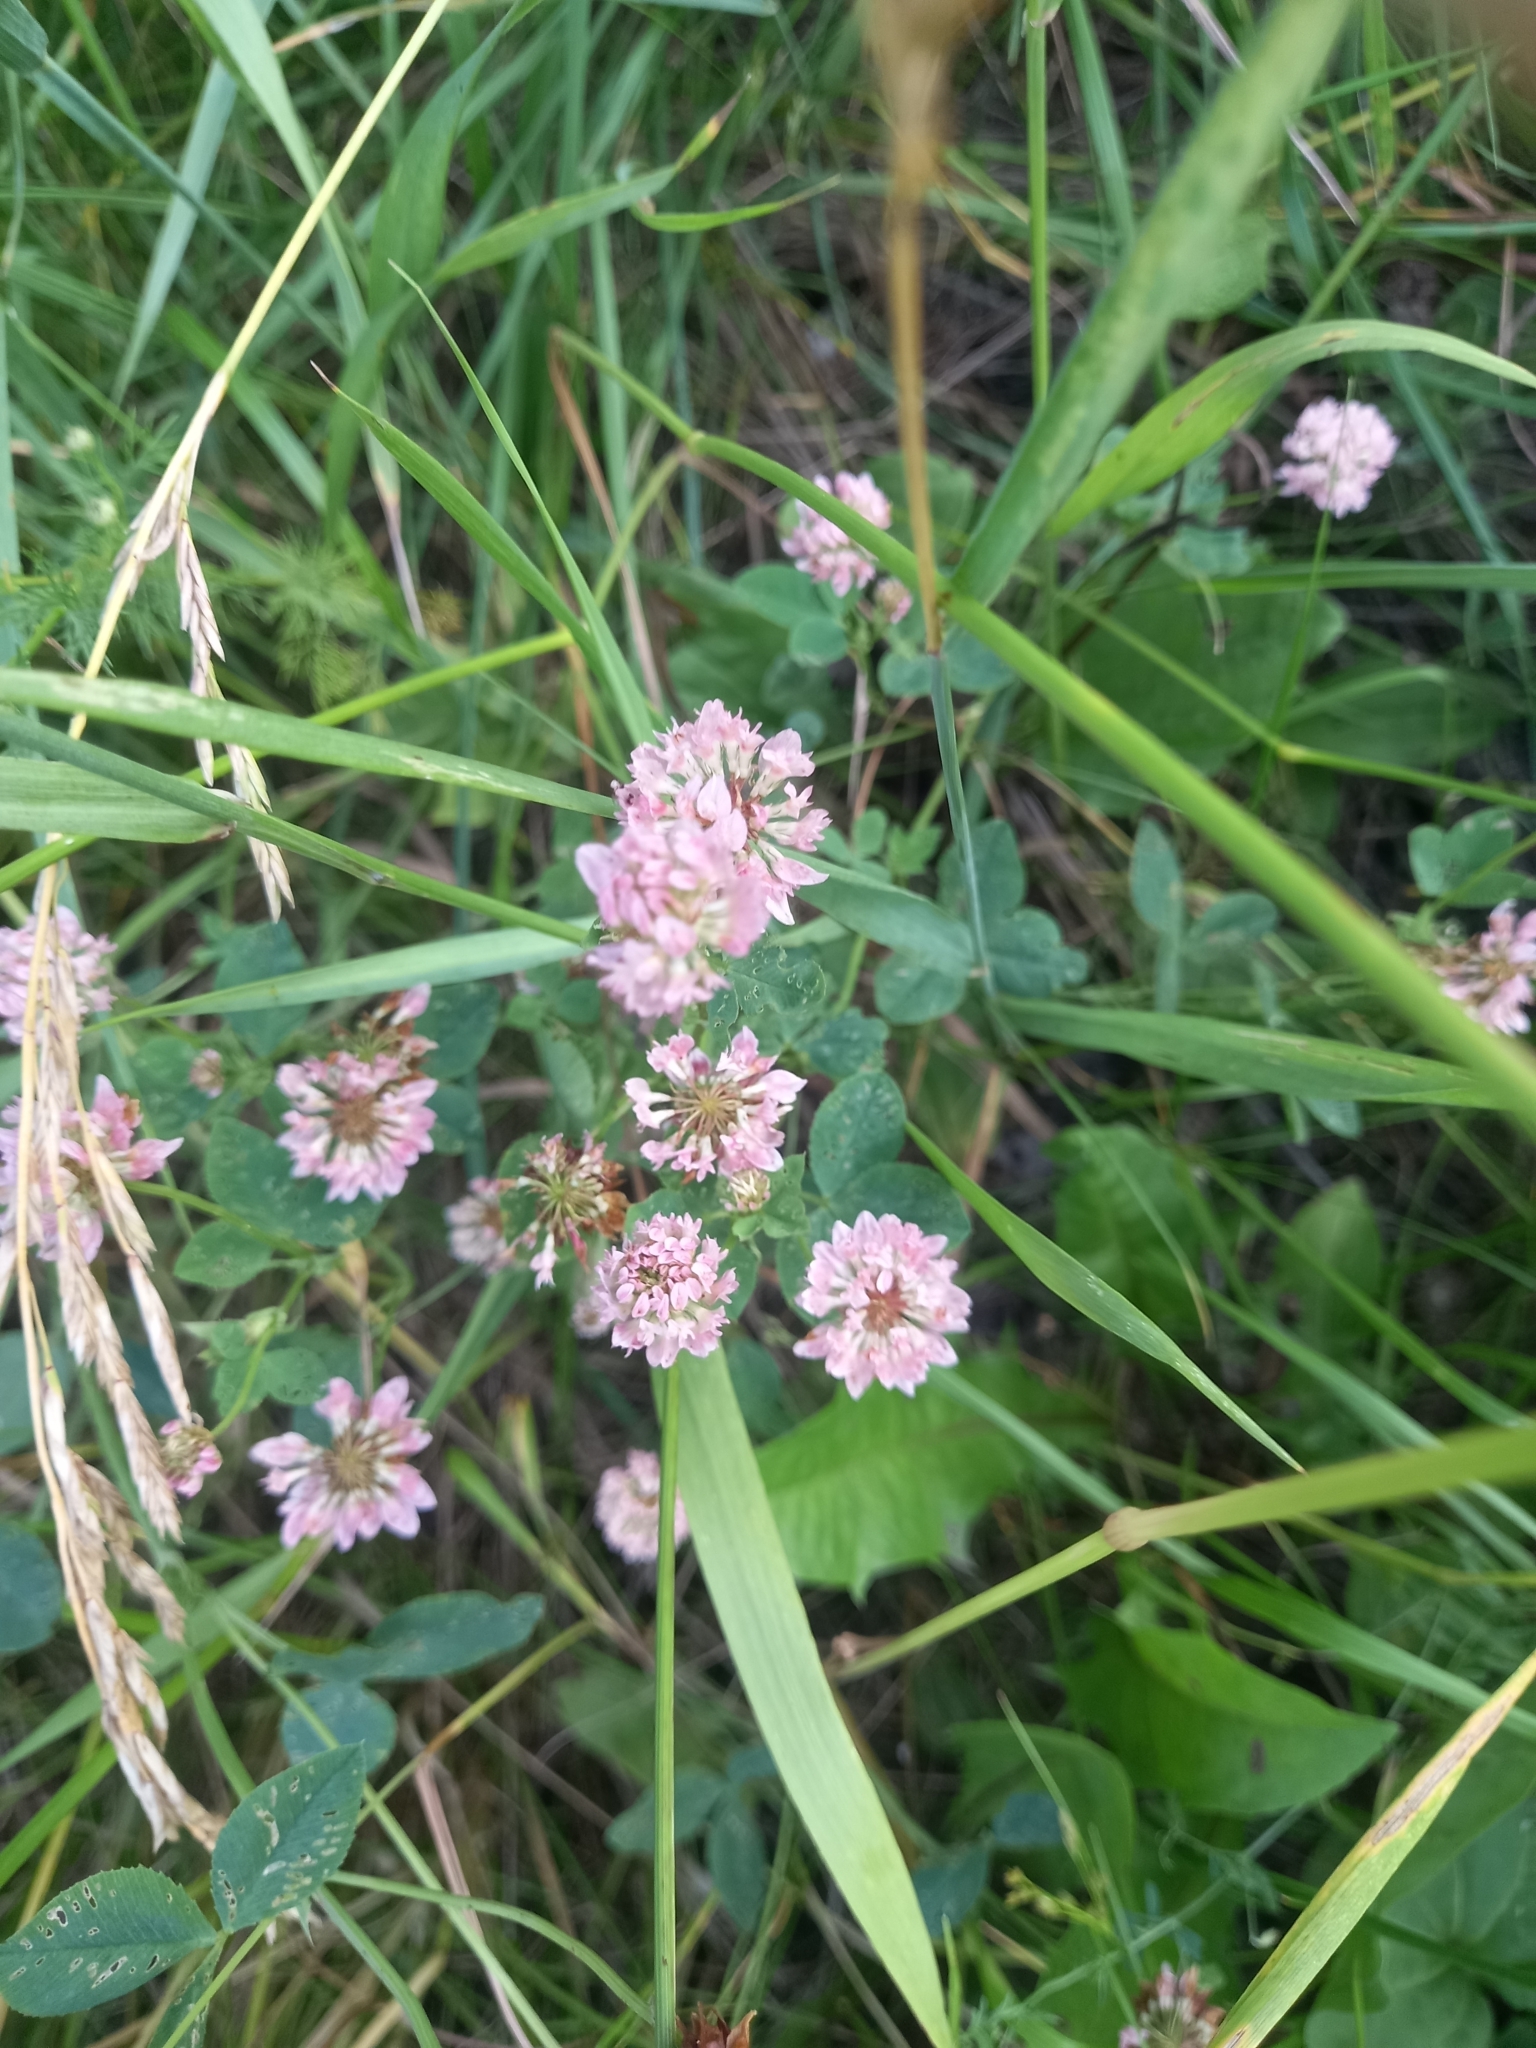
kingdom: Plantae
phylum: Tracheophyta
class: Magnoliopsida
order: Fabales
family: Fabaceae
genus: Trifolium
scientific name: Trifolium hybridum
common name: Alsike clover
